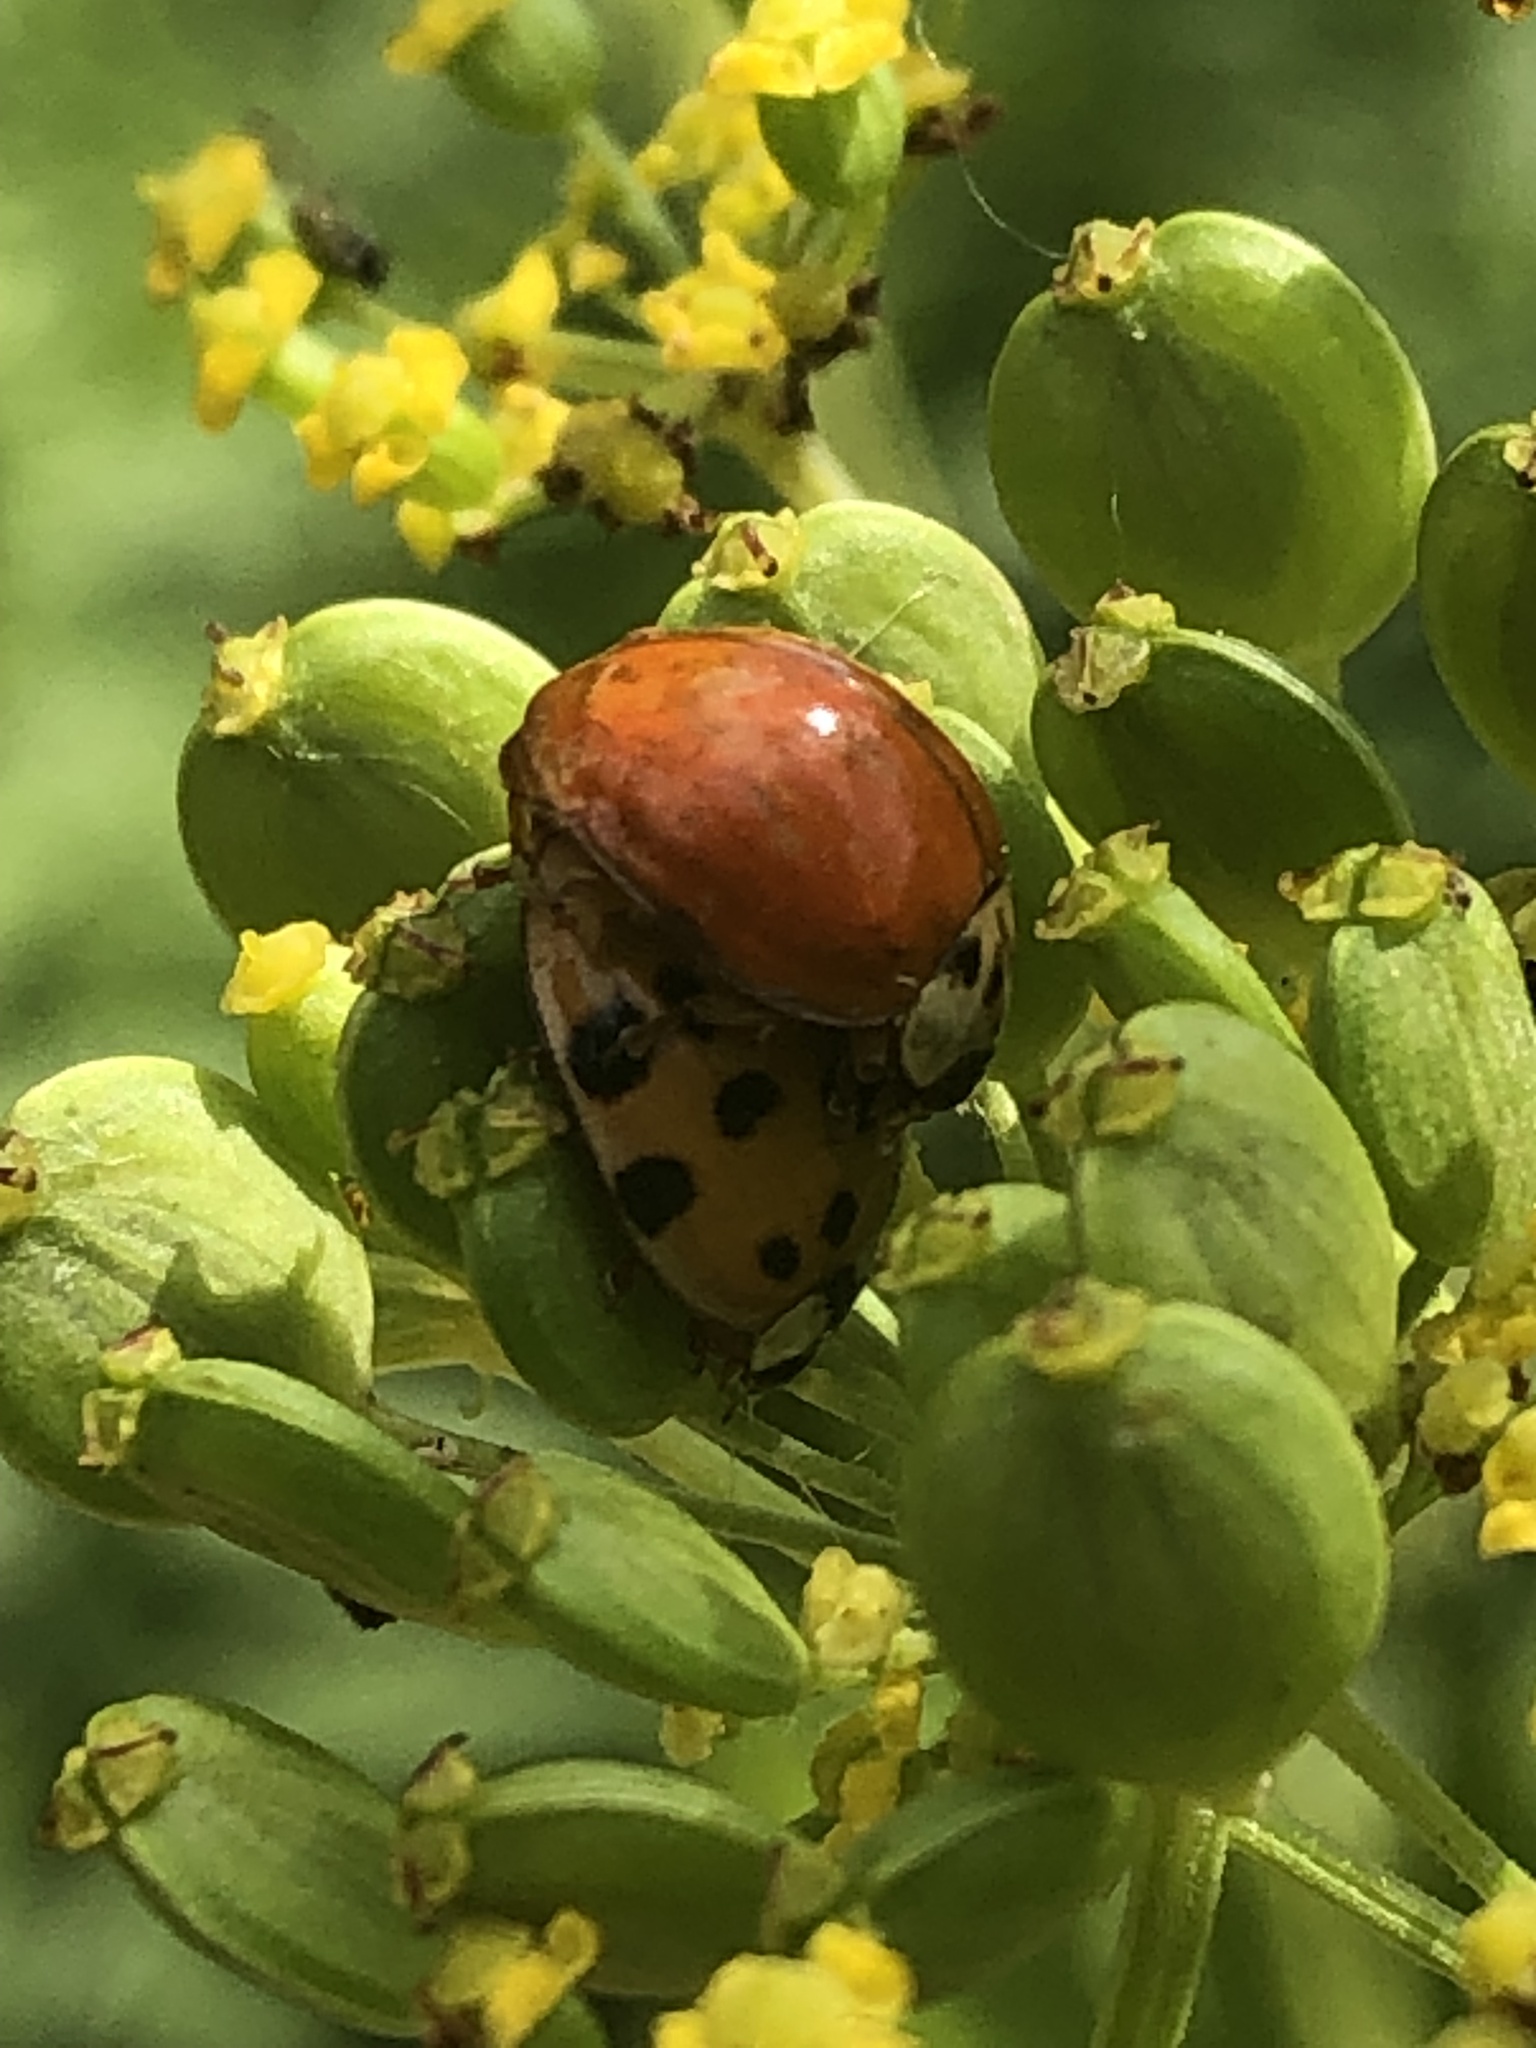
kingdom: Animalia
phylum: Arthropoda
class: Insecta
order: Coleoptera
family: Coccinellidae
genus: Harmonia
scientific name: Harmonia axyridis
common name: Harlequin ladybird
